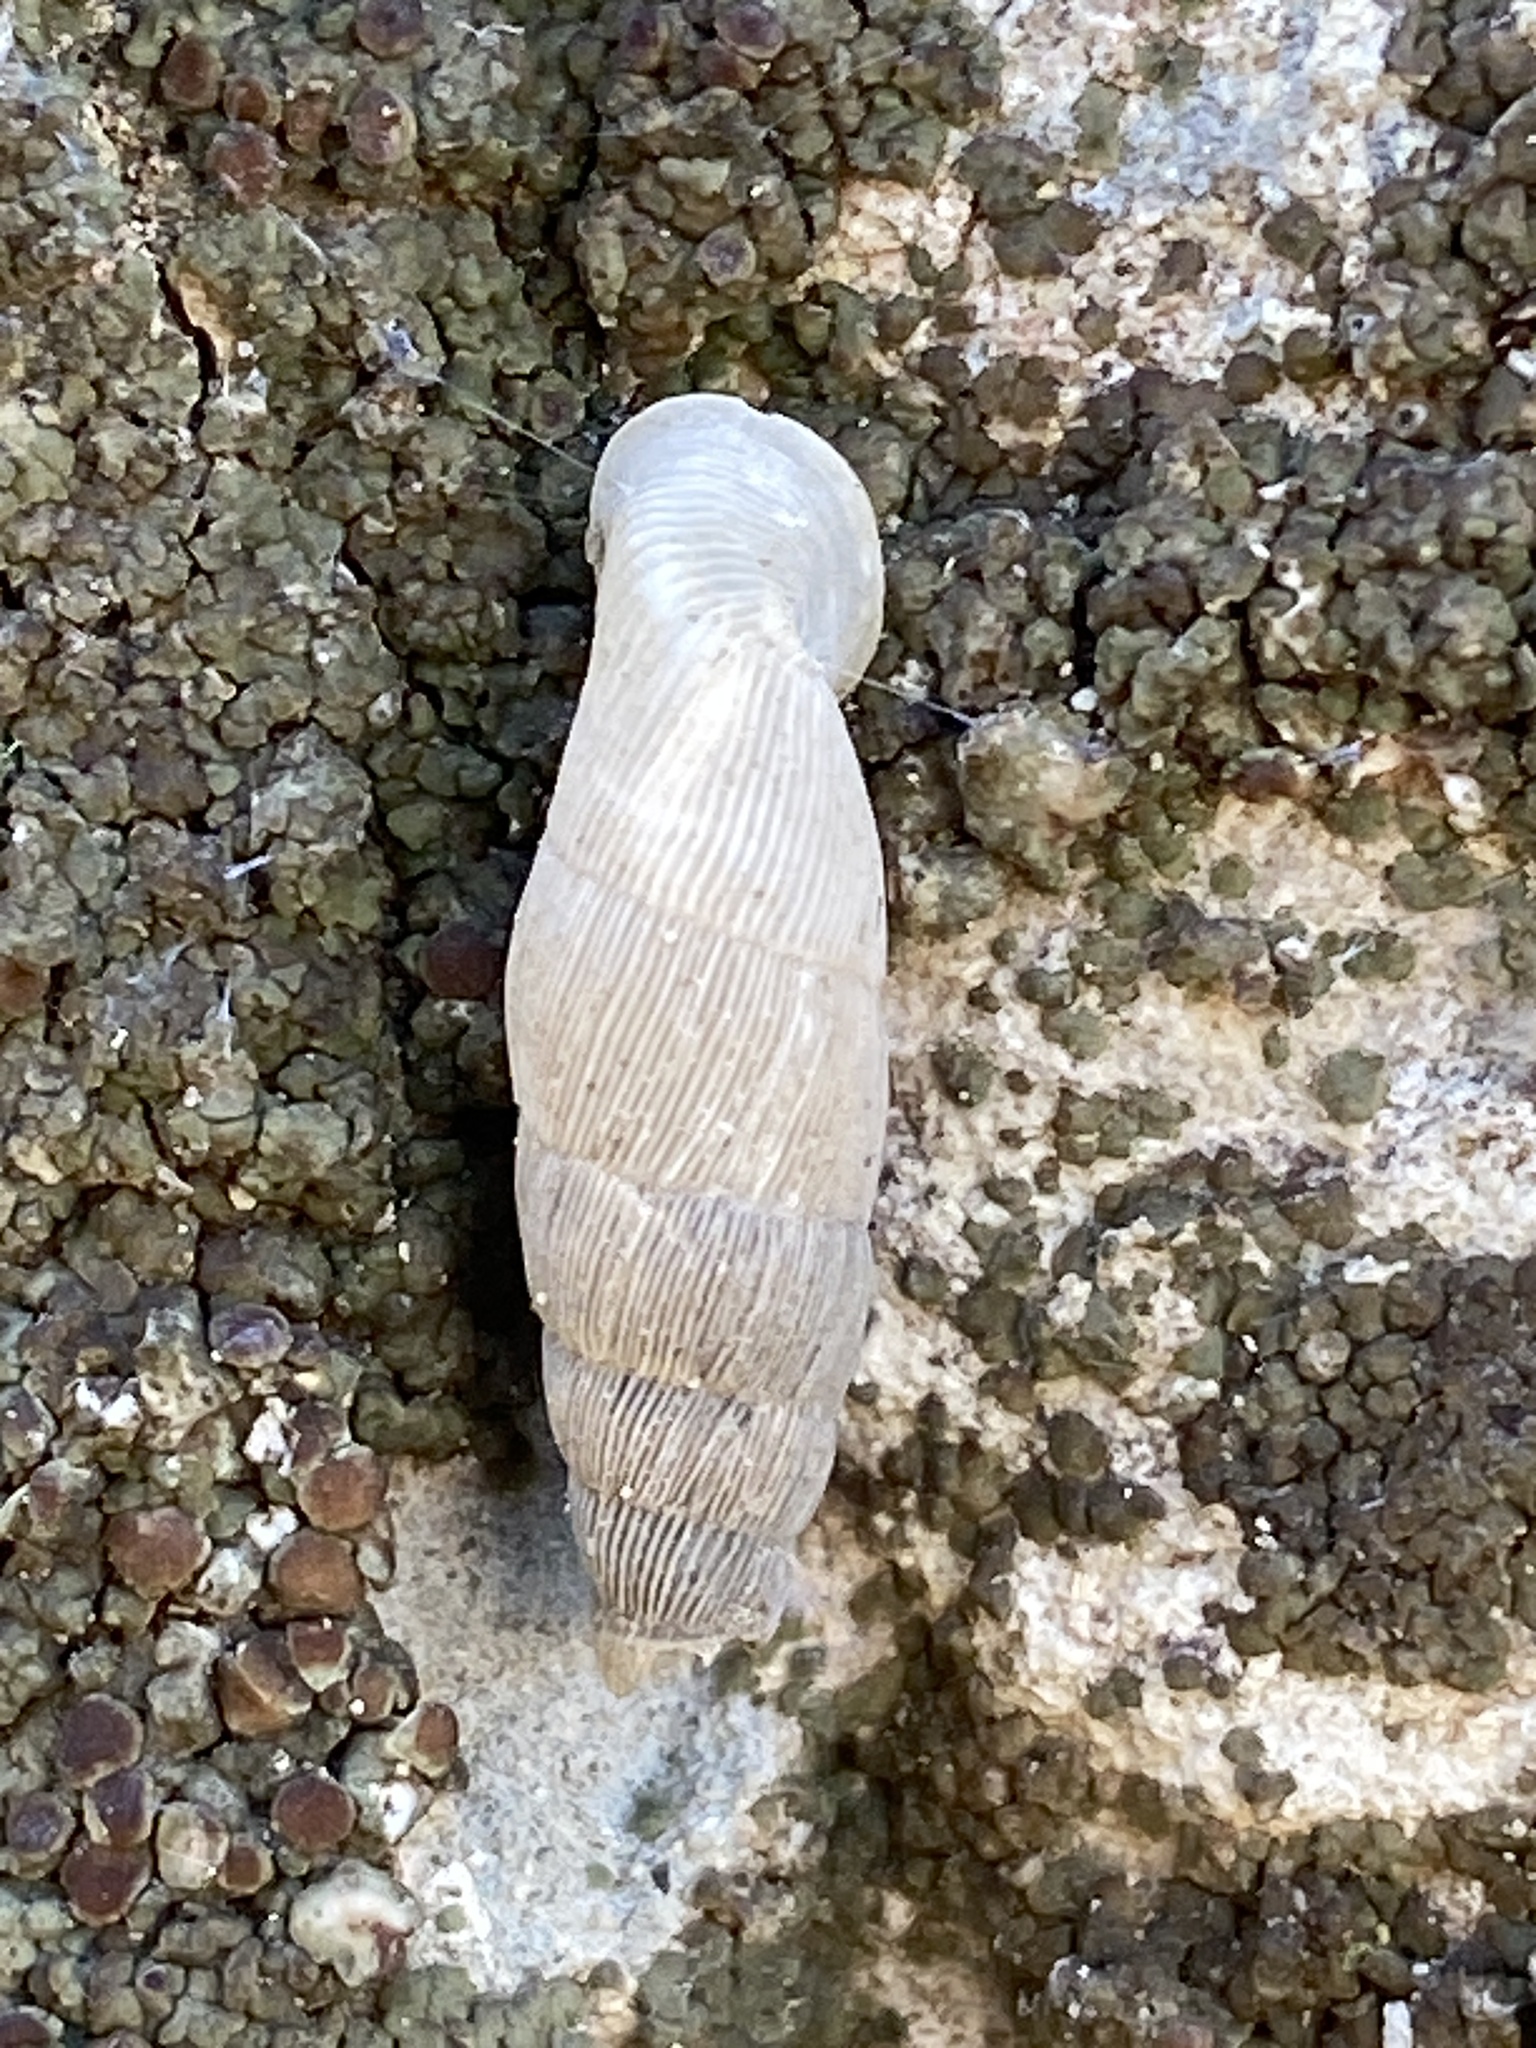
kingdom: Animalia
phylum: Mollusca
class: Gastropoda
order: Stylommatophora
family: Clausiliidae
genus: Muticaria
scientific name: Muticaria macrostoma
